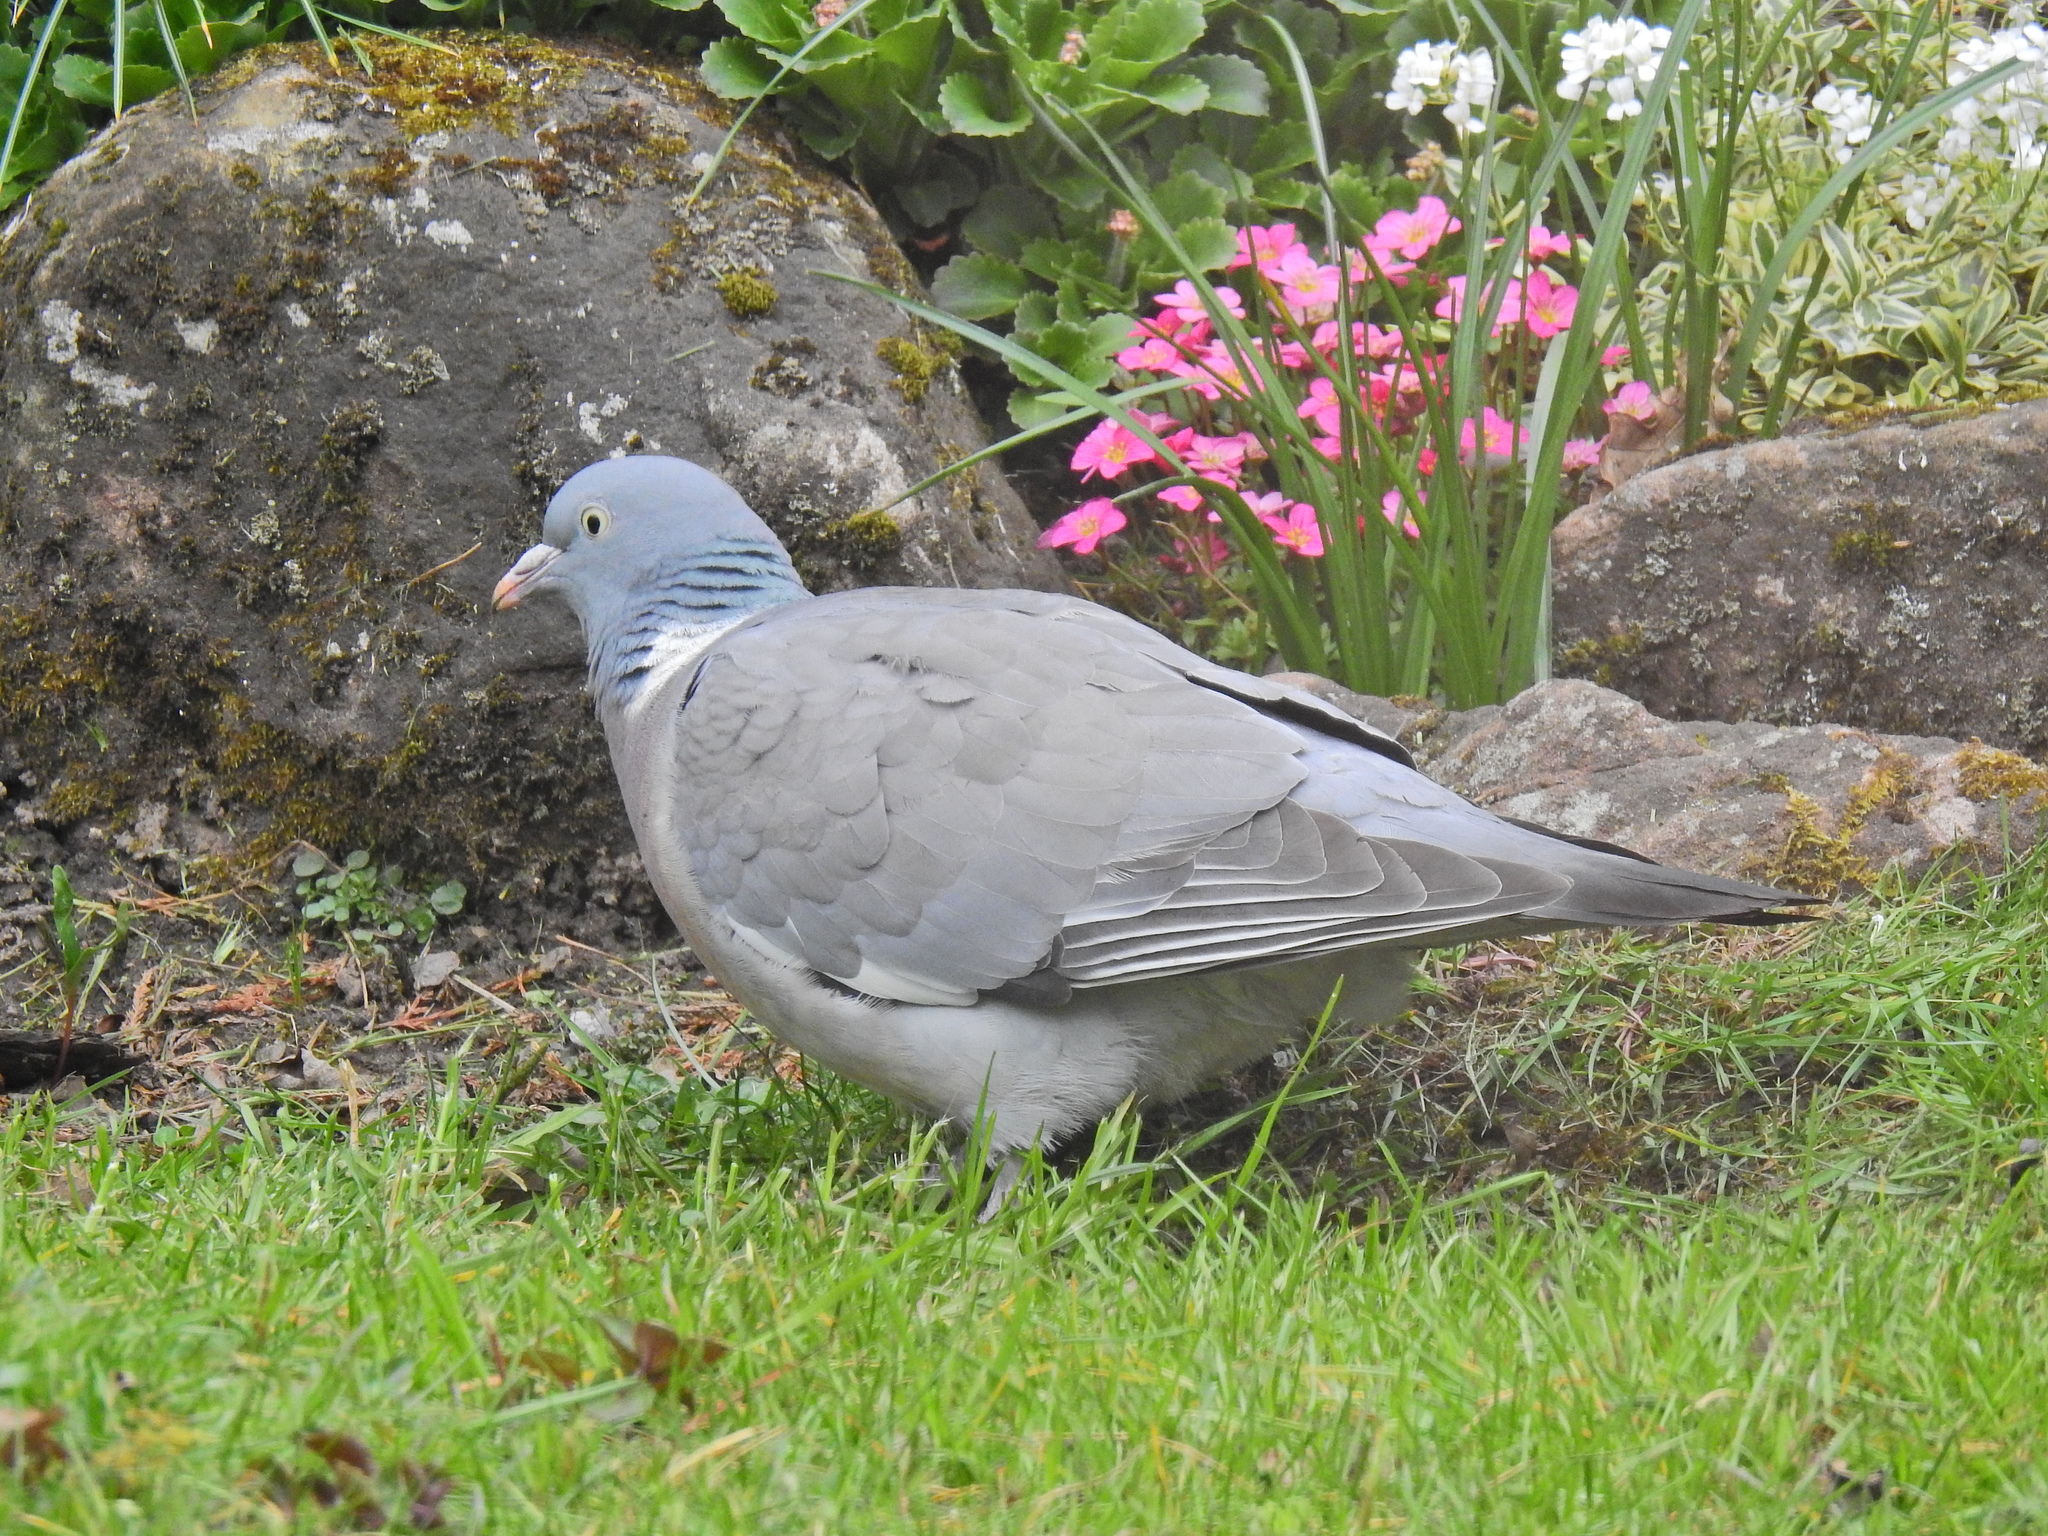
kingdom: Animalia
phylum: Chordata
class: Aves
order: Columbiformes
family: Columbidae
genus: Columba
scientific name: Columba palumbus
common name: Common wood pigeon
